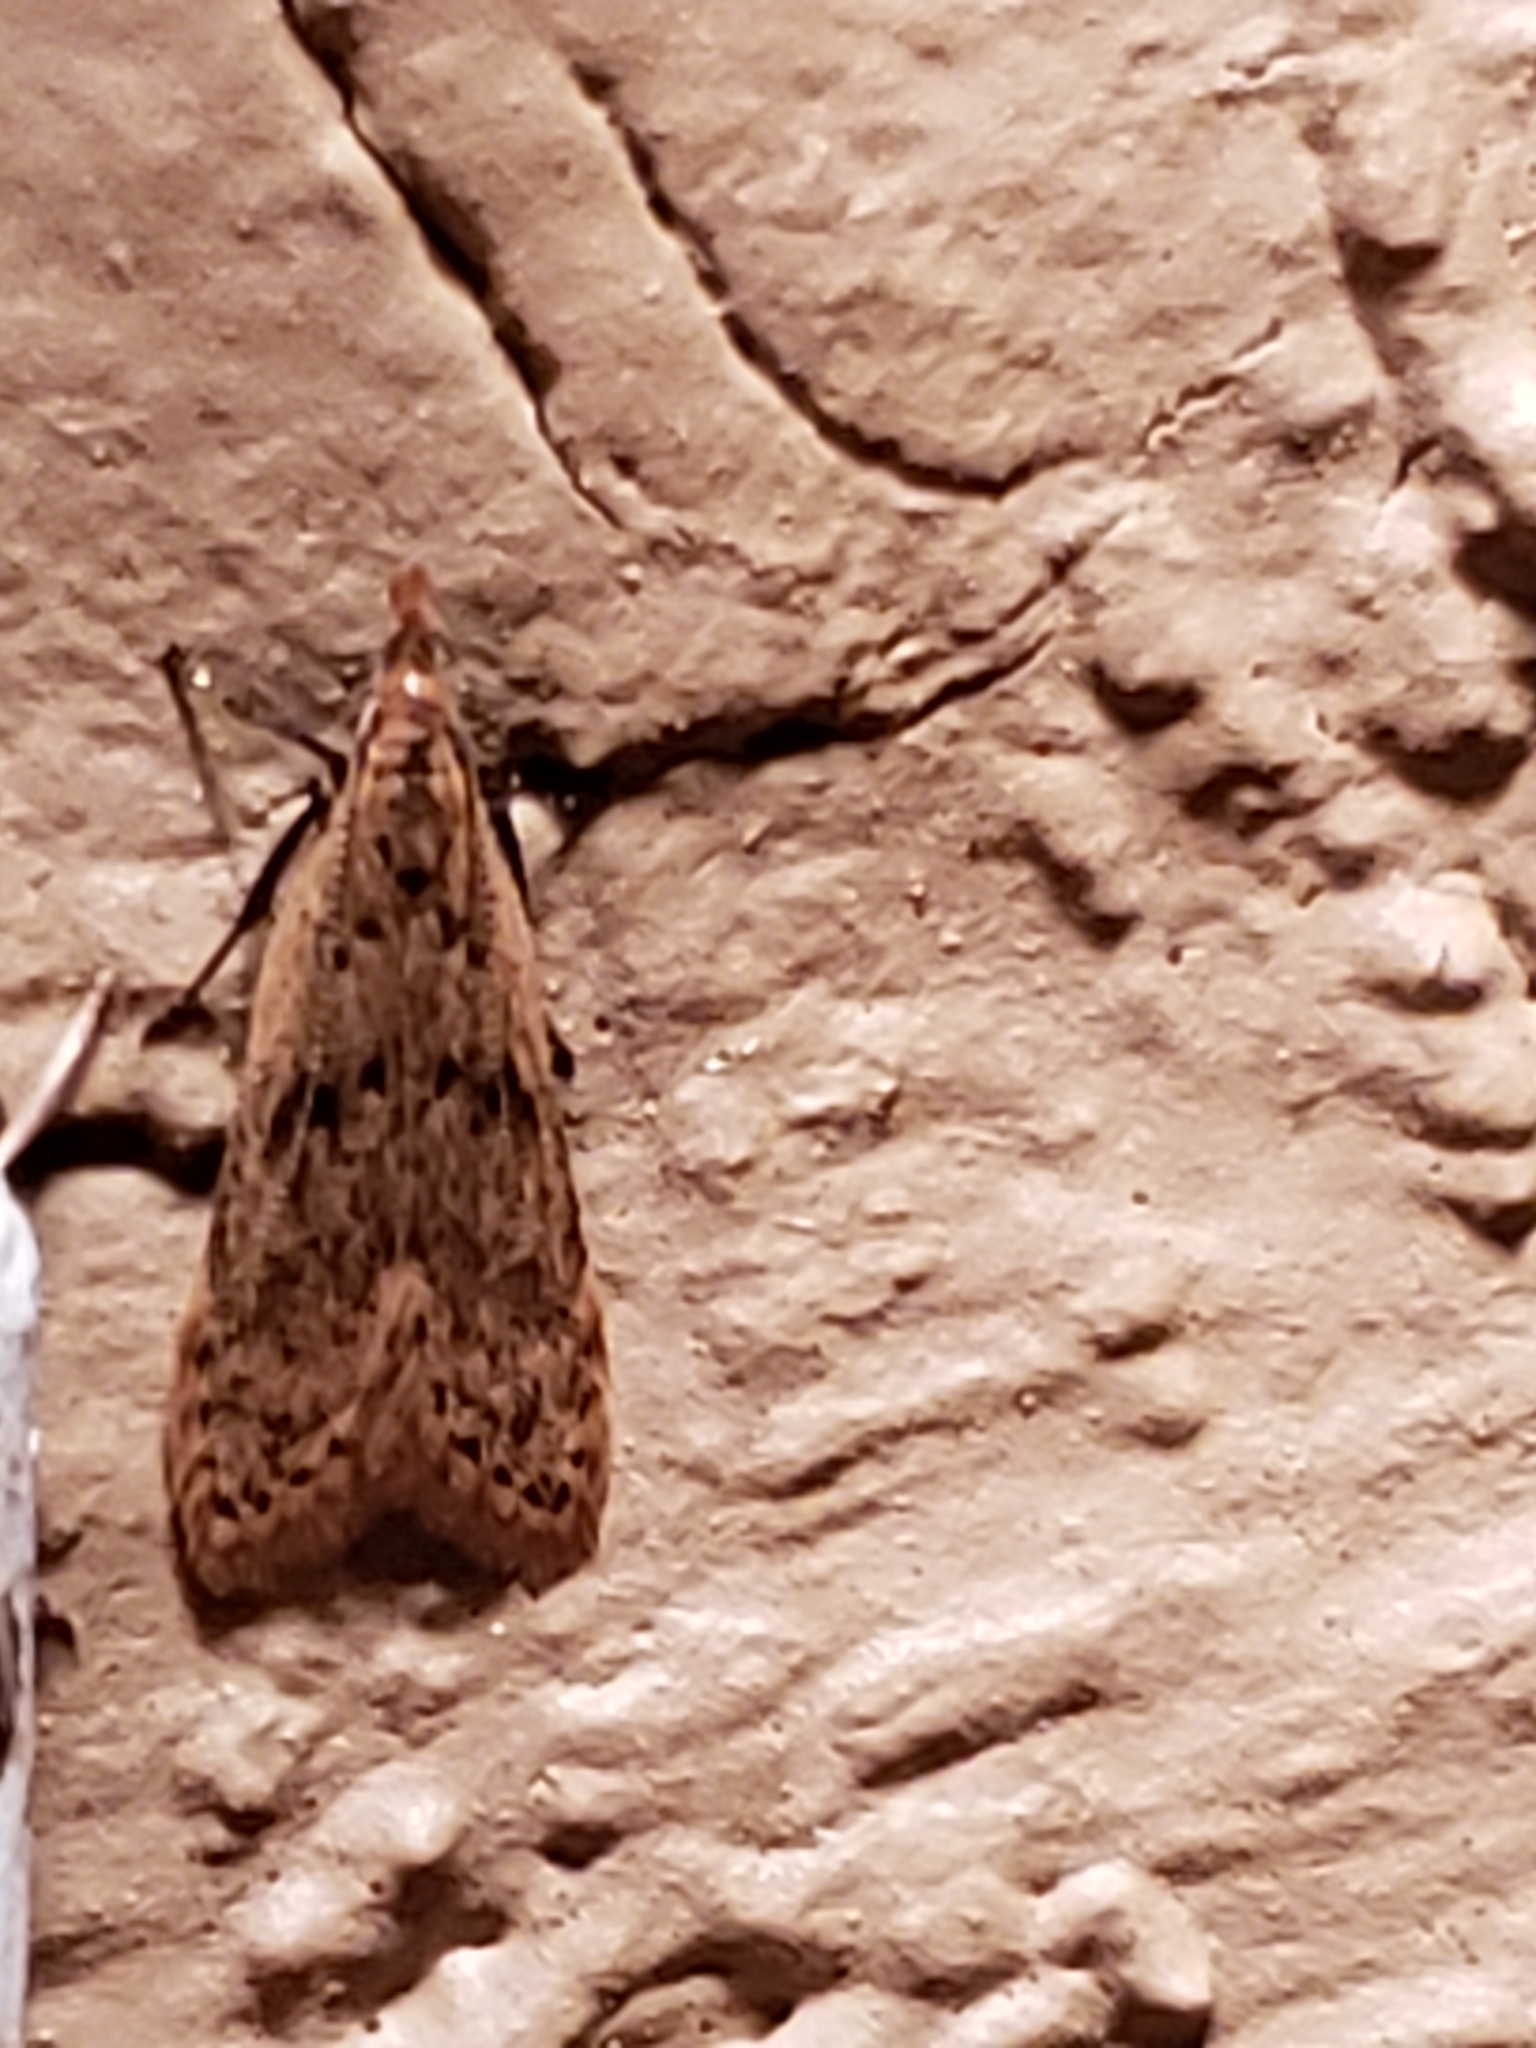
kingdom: Animalia
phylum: Arthropoda
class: Insecta
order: Lepidoptera
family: Gelechiidae
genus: Dichomeris
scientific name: Dichomeris punctipennella
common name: Many-spotted dichomeris moth
